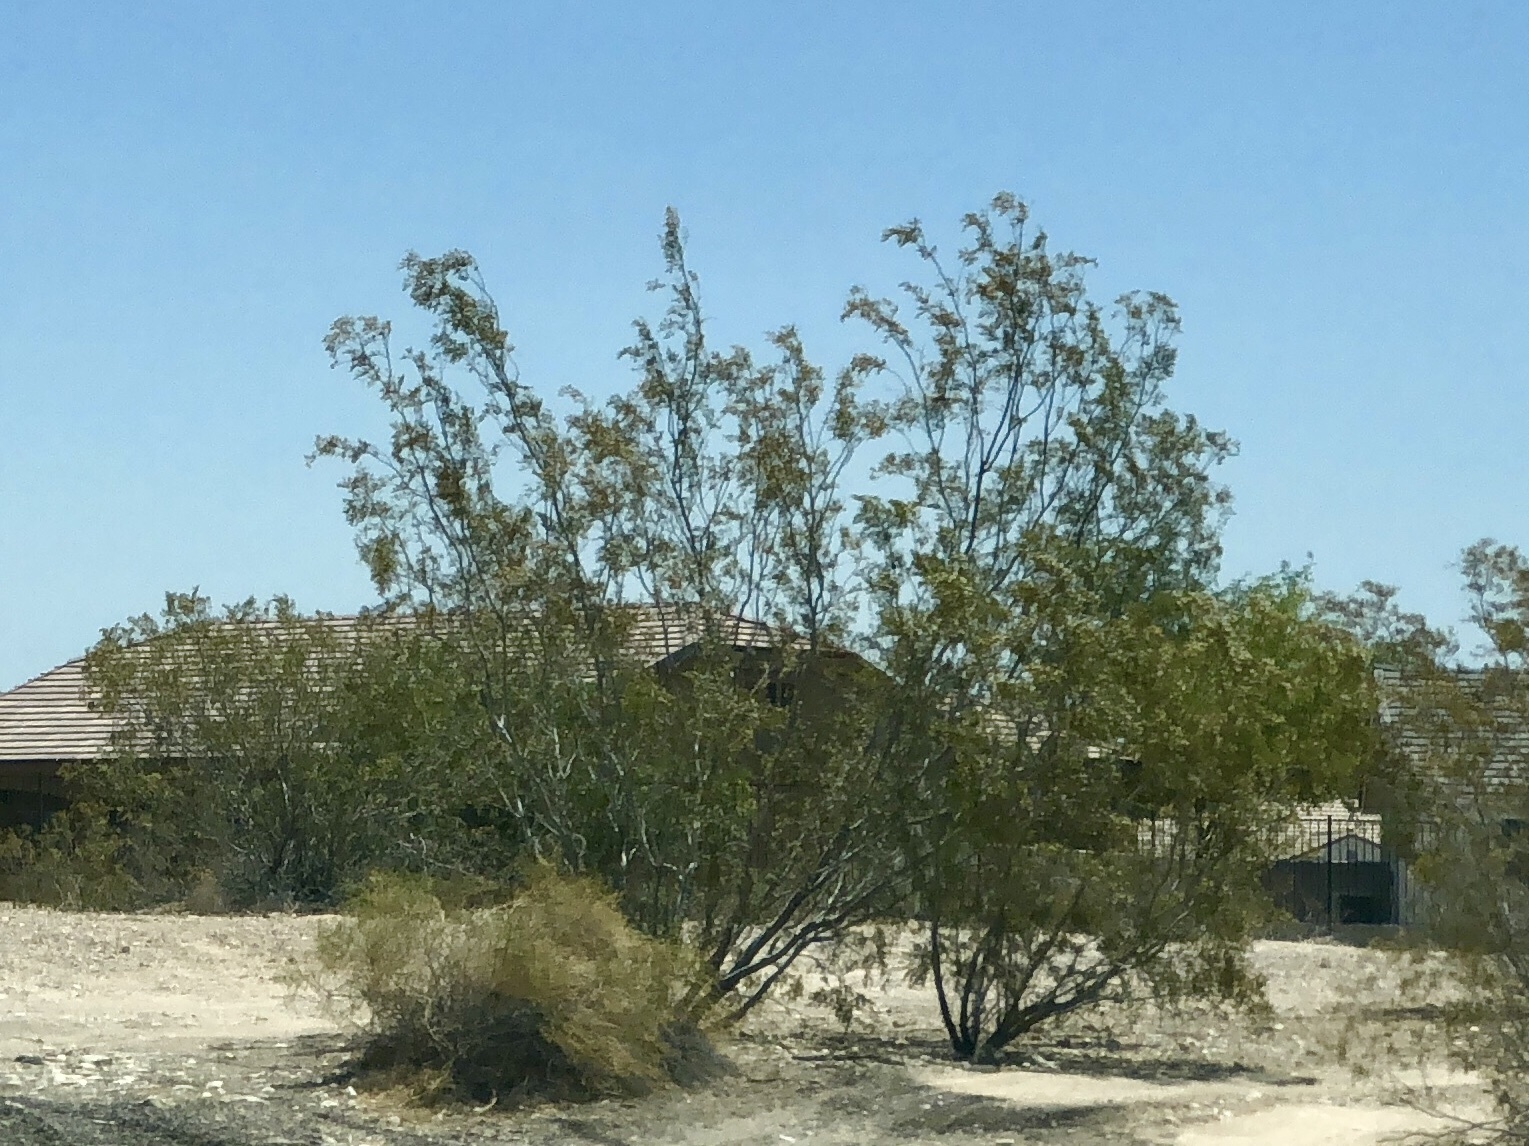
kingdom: Plantae
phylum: Tracheophyta
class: Magnoliopsida
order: Zygophyllales
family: Zygophyllaceae
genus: Larrea
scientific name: Larrea tridentata
